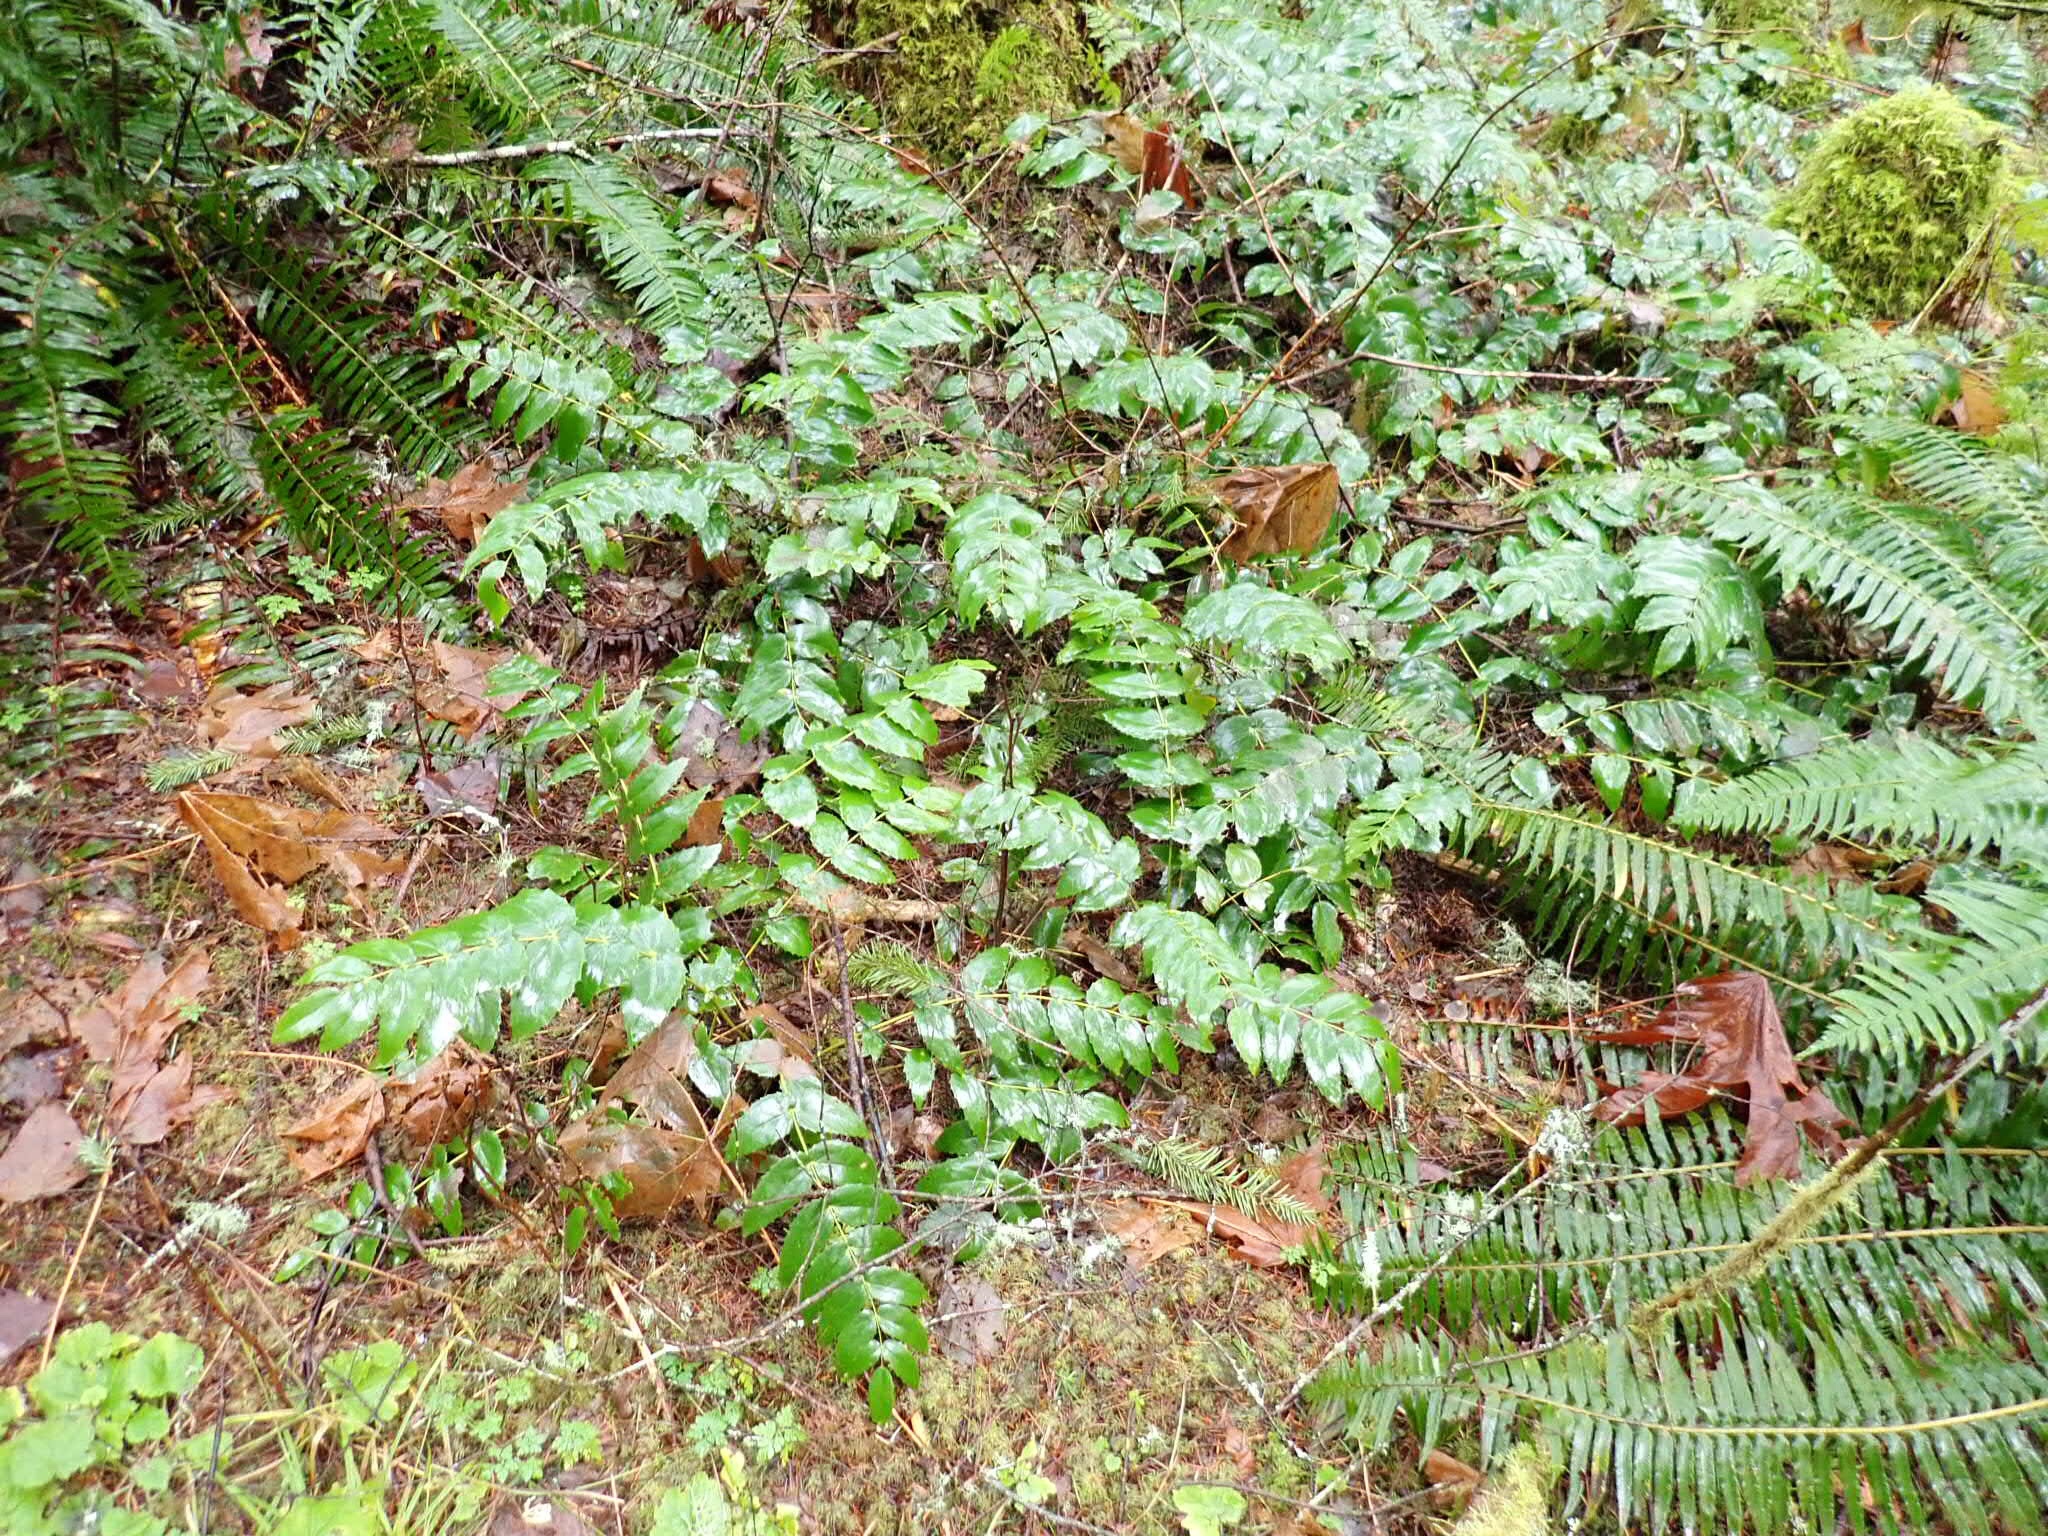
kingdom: Plantae
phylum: Tracheophyta
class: Magnoliopsida
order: Ranunculales
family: Berberidaceae
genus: Mahonia
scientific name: Mahonia nervosa
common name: Cascade oregon-grape
